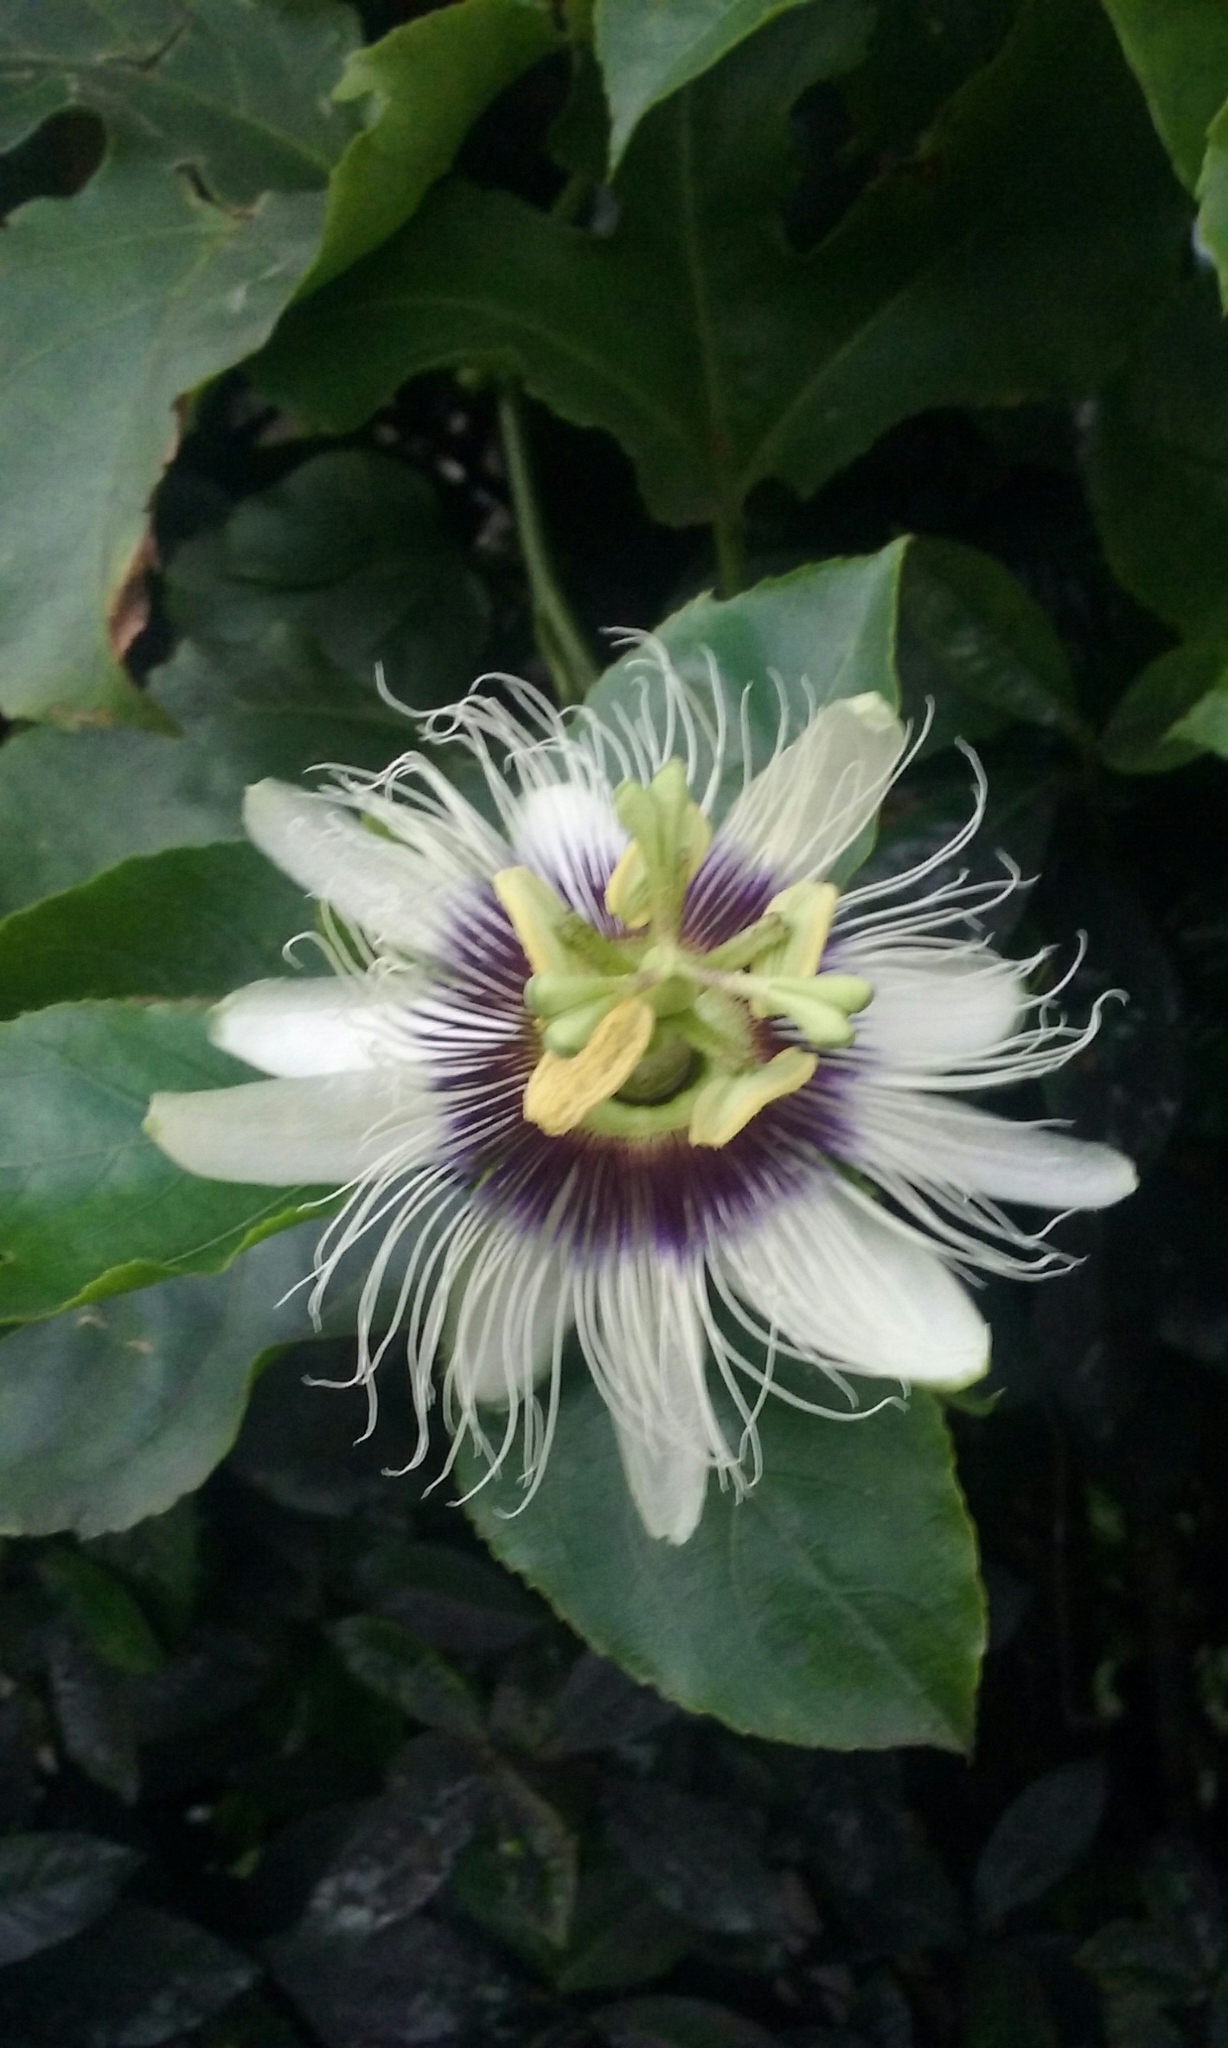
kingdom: Plantae
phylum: Tracheophyta
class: Magnoliopsida
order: Malpighiales
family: Passifloraceae
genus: Passiflora
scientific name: Passiflora edulis
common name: Purple granadilla
